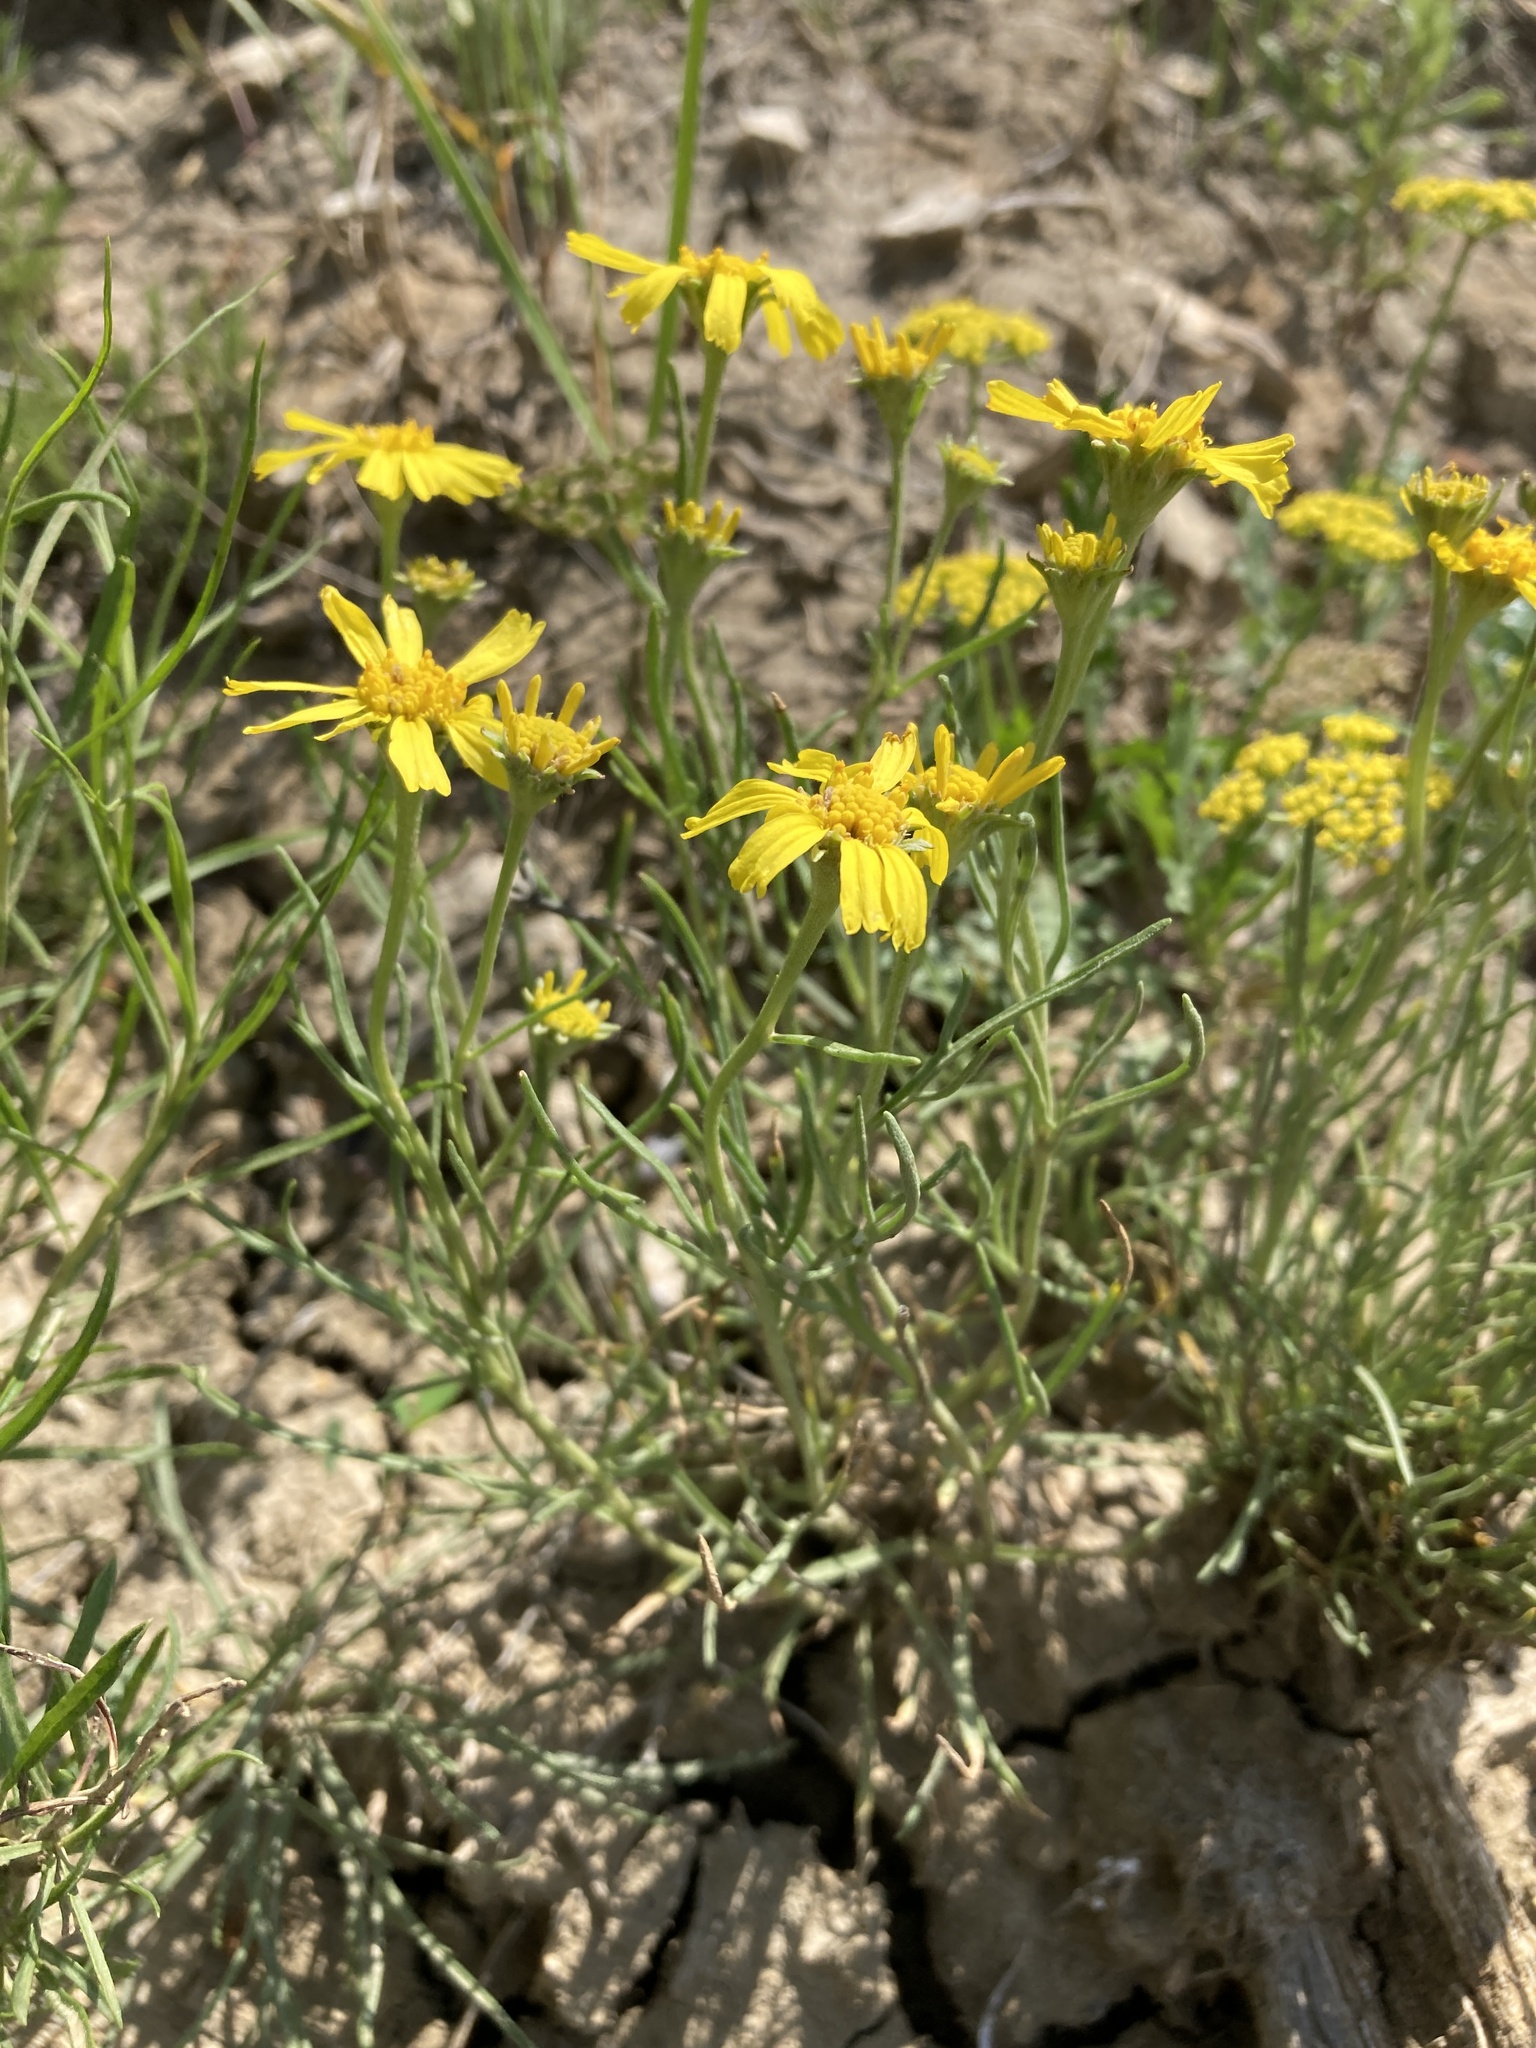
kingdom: Plantae
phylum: Tracheophyta
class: Magnoliopsida
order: Asterales
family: Asteraceae
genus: Hymenoxys
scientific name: Hymenoxys richardsonii
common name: Pingue rubberweed
